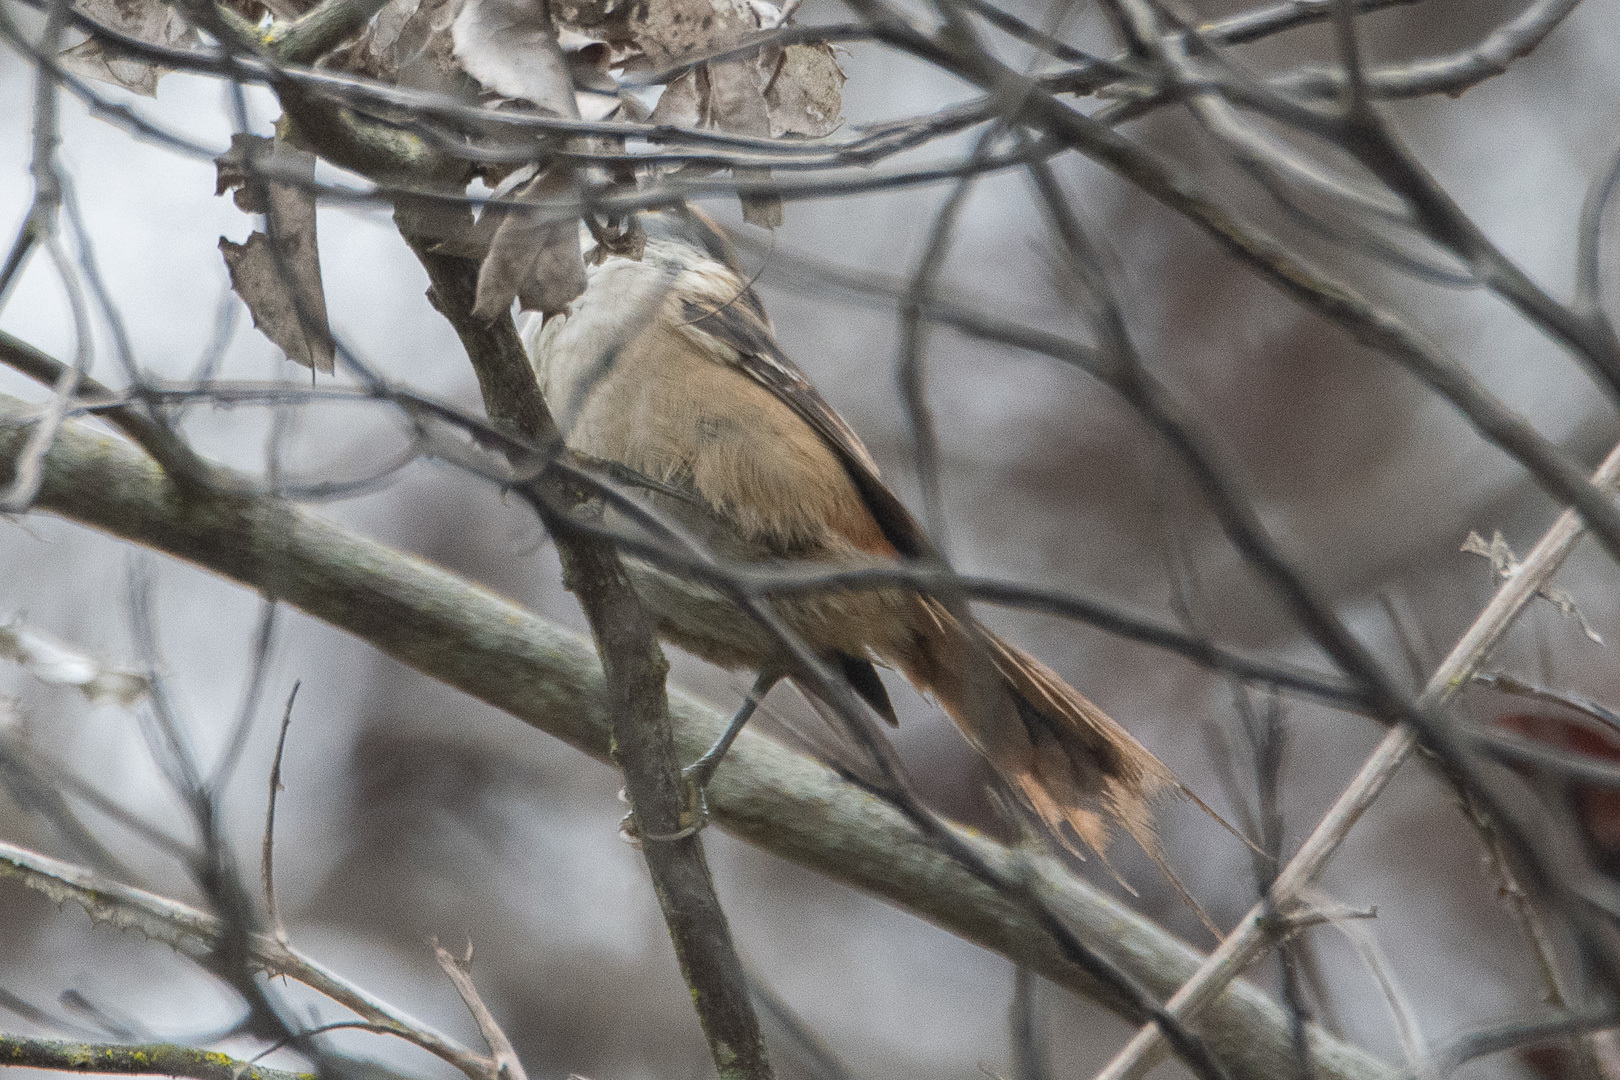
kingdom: Animalia
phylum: Chordata
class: Aves
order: Passeriformes
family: Furnariidae
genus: Aphrastura
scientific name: Aphrastura spinicauda
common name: Thorn-tailed rayadito
